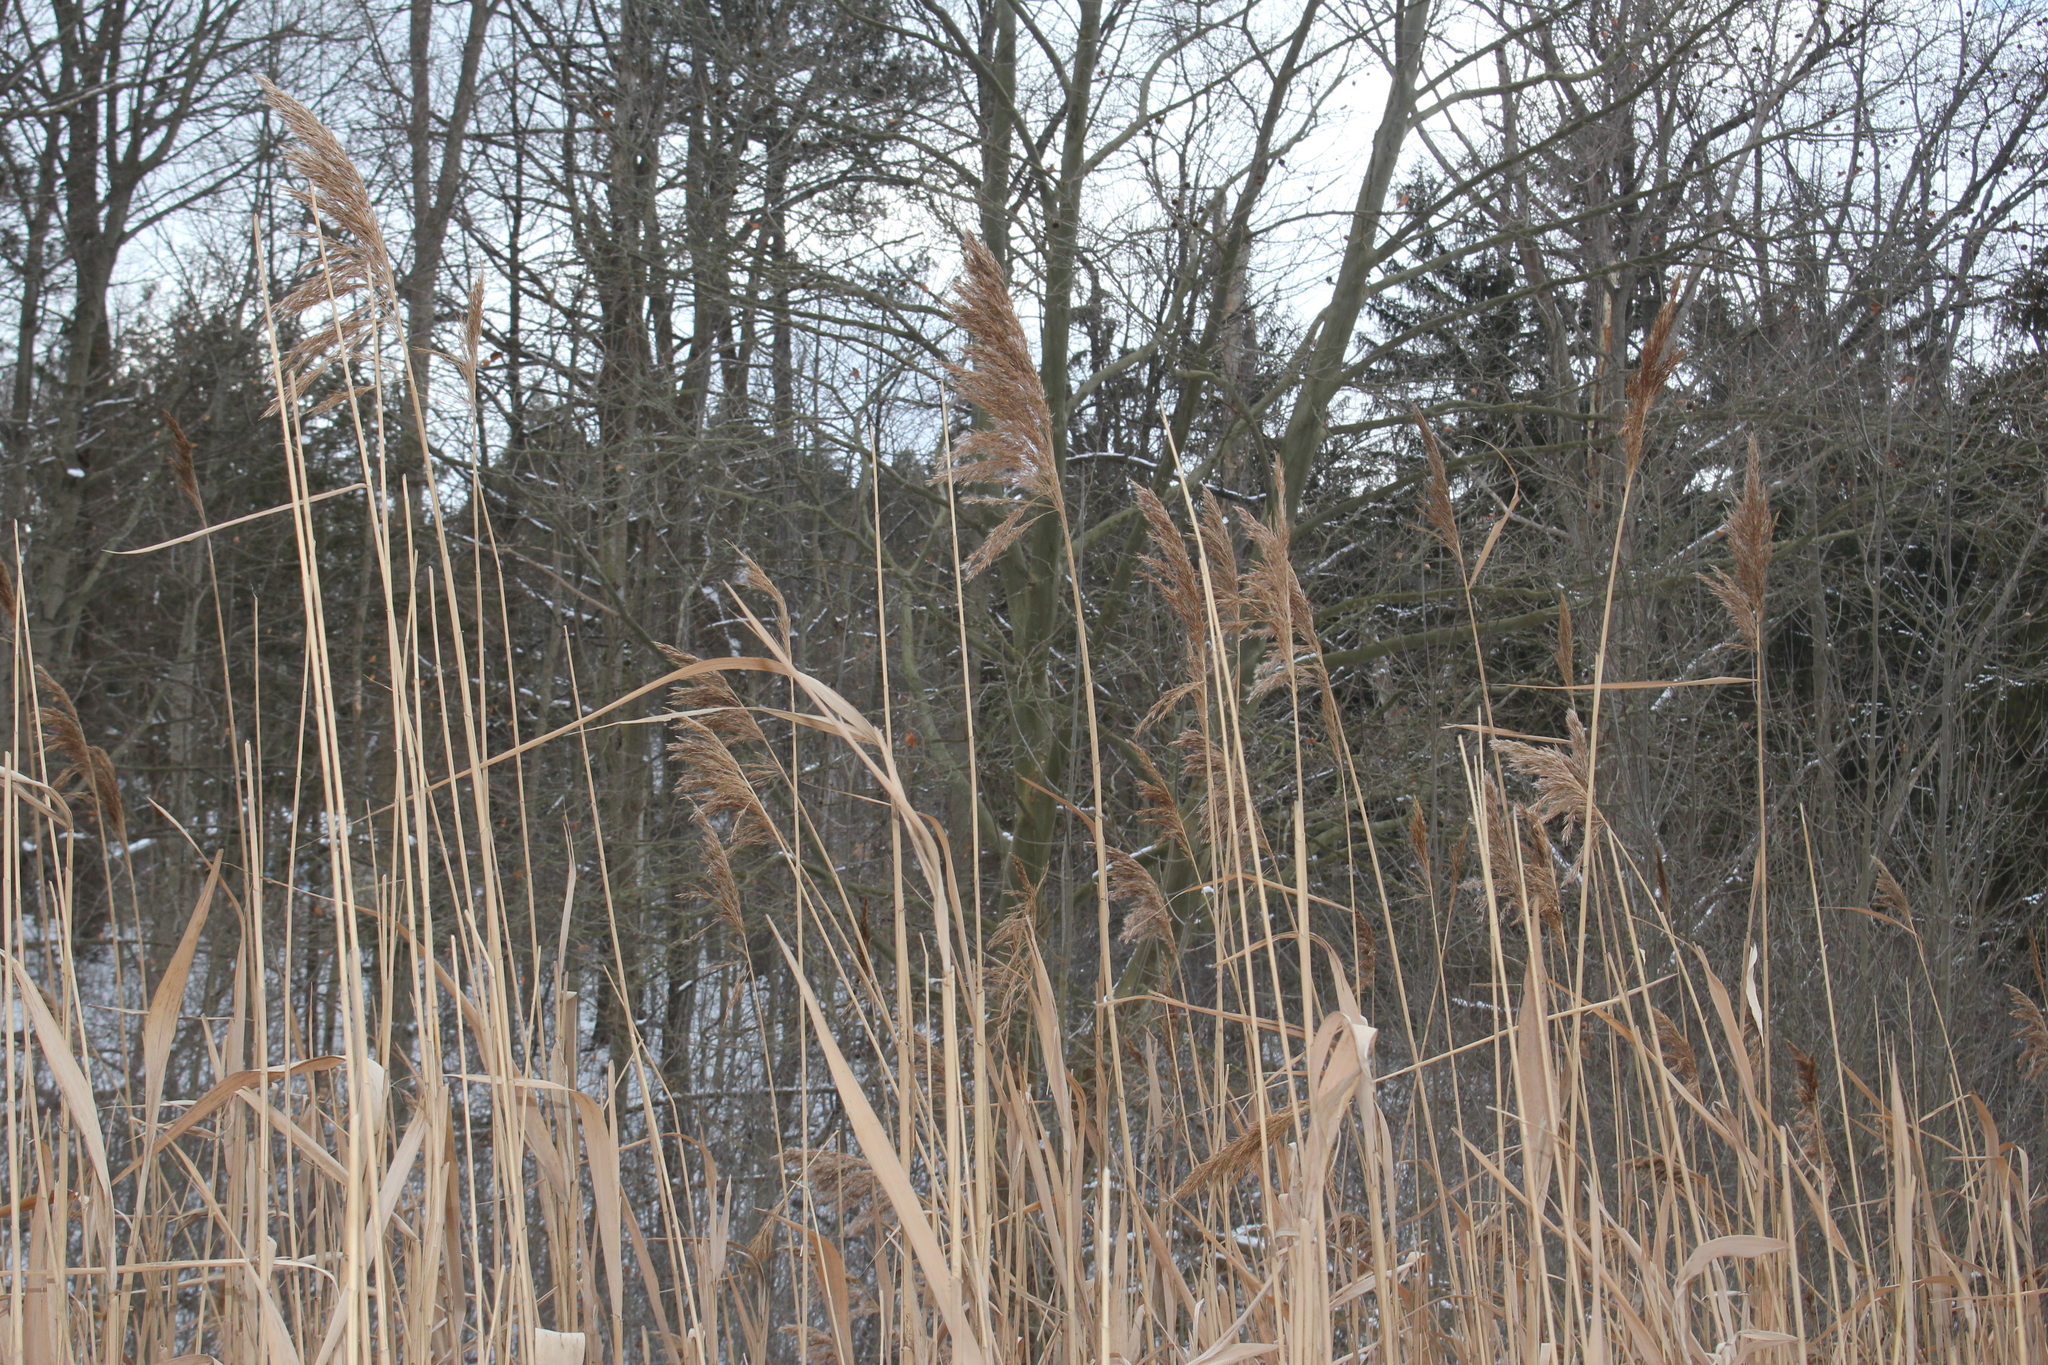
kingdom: Plantae
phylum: Tracheophyta
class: Liliopsida
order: Poales
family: Poaceae
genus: Phragmites
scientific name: Phragmites australis
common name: Common reed
